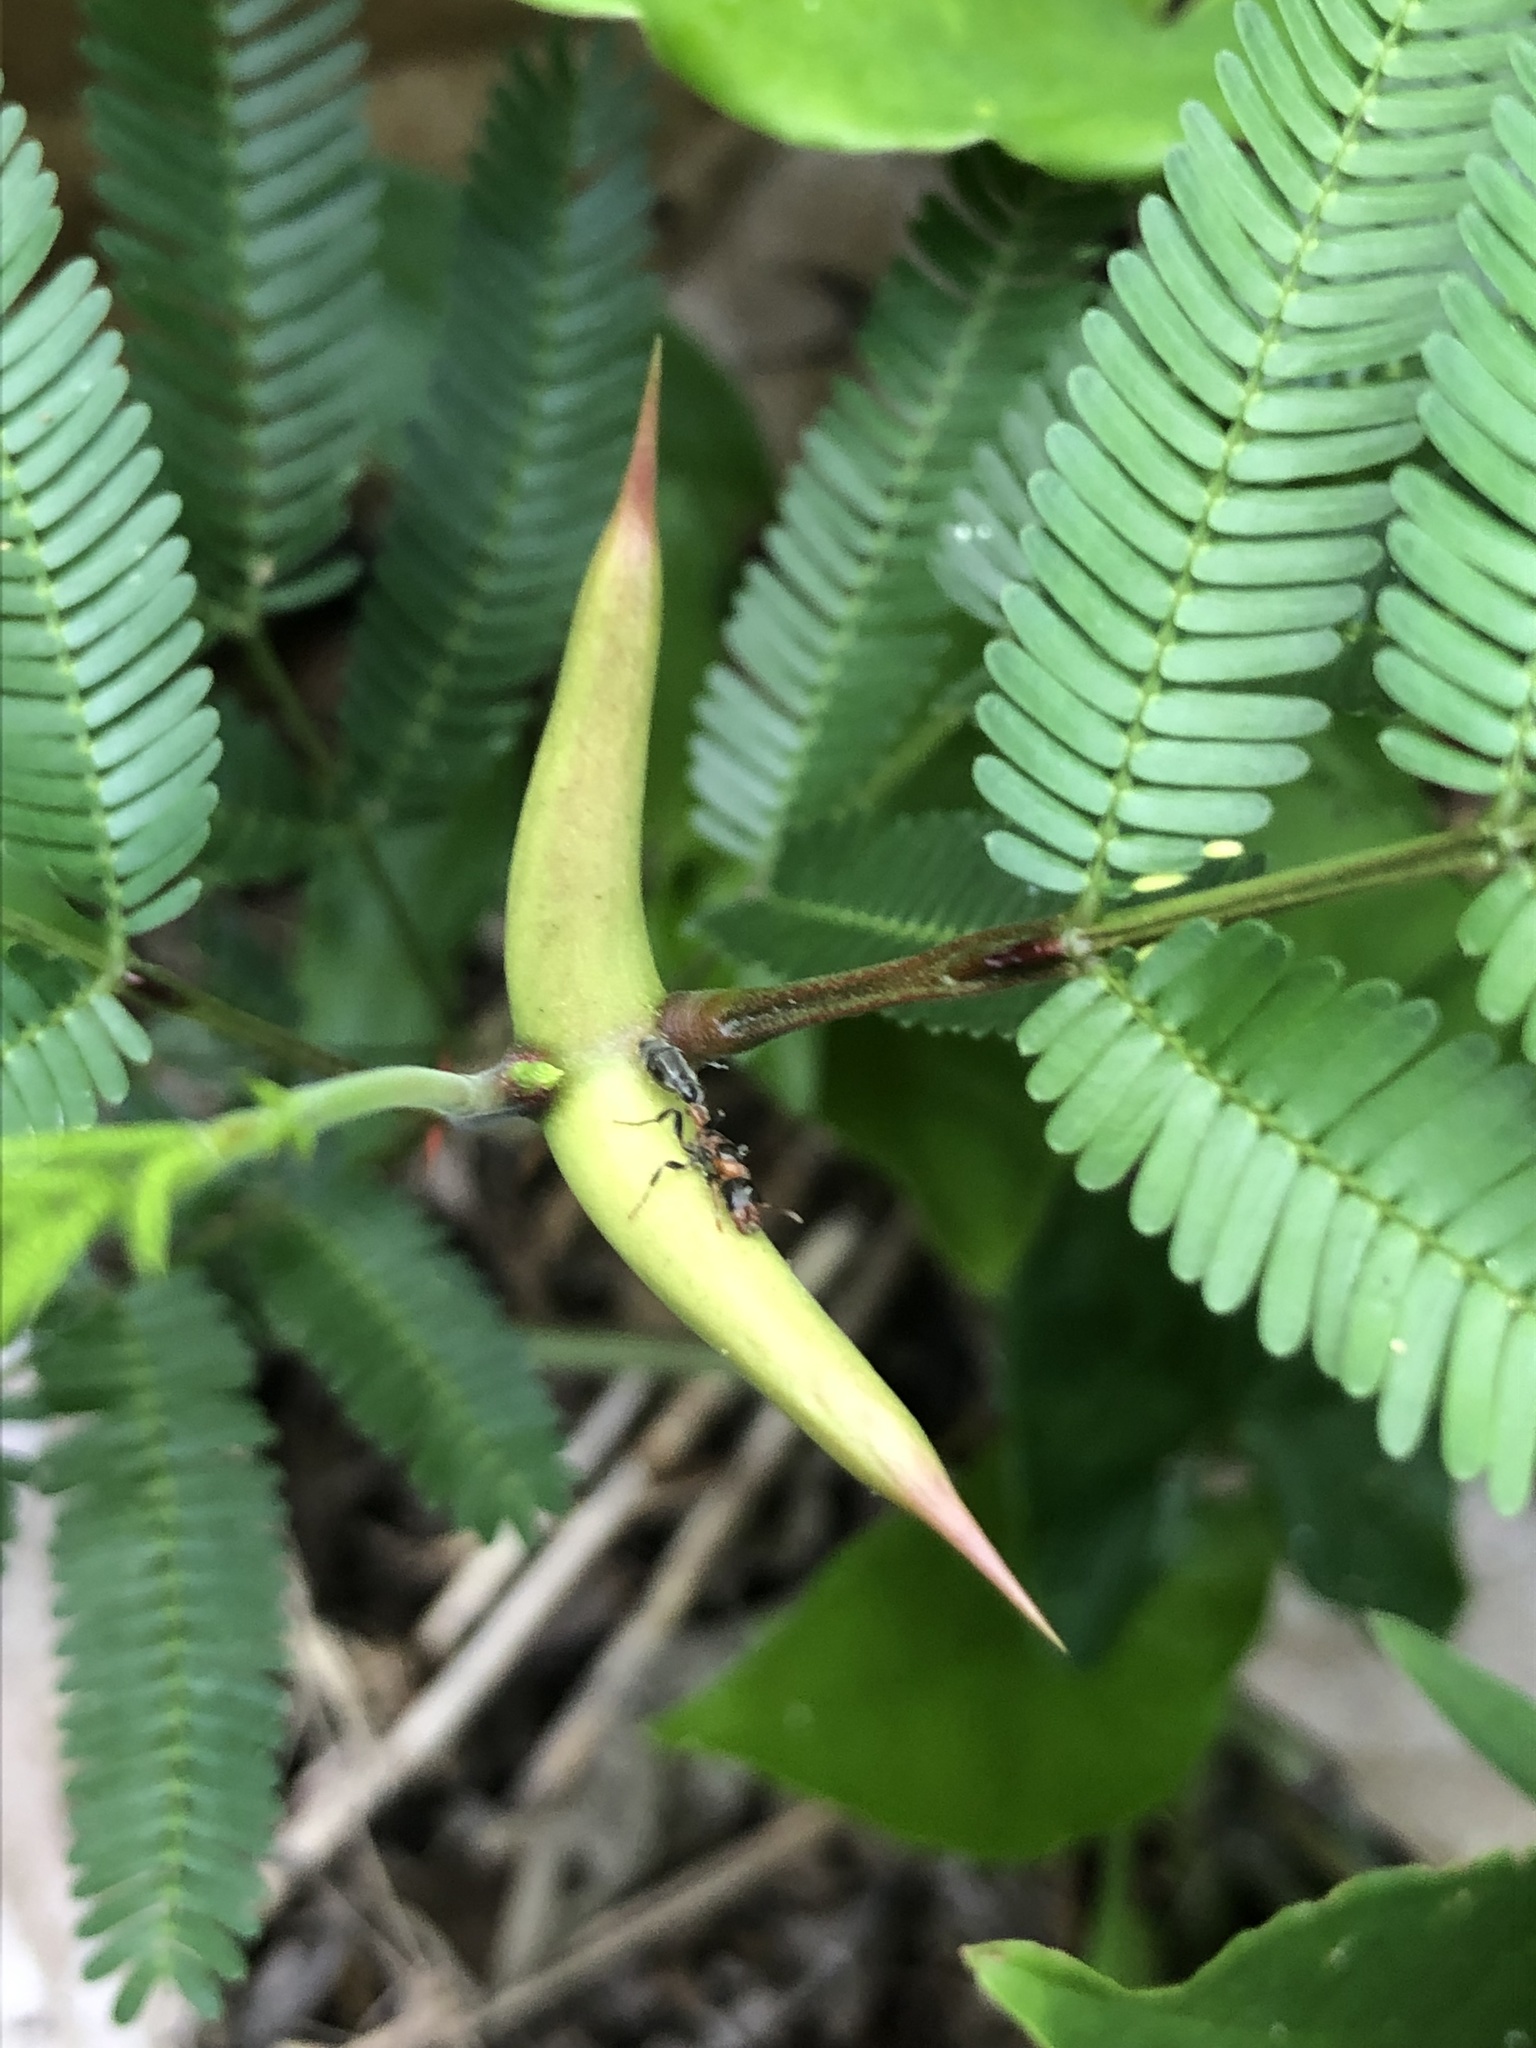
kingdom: Plantae
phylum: Tracheophyta
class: Magnoliopsida
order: Fabales
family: Fabaceae
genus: Vachellia
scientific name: Vachellia cornigera
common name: Bullhorn wattle
